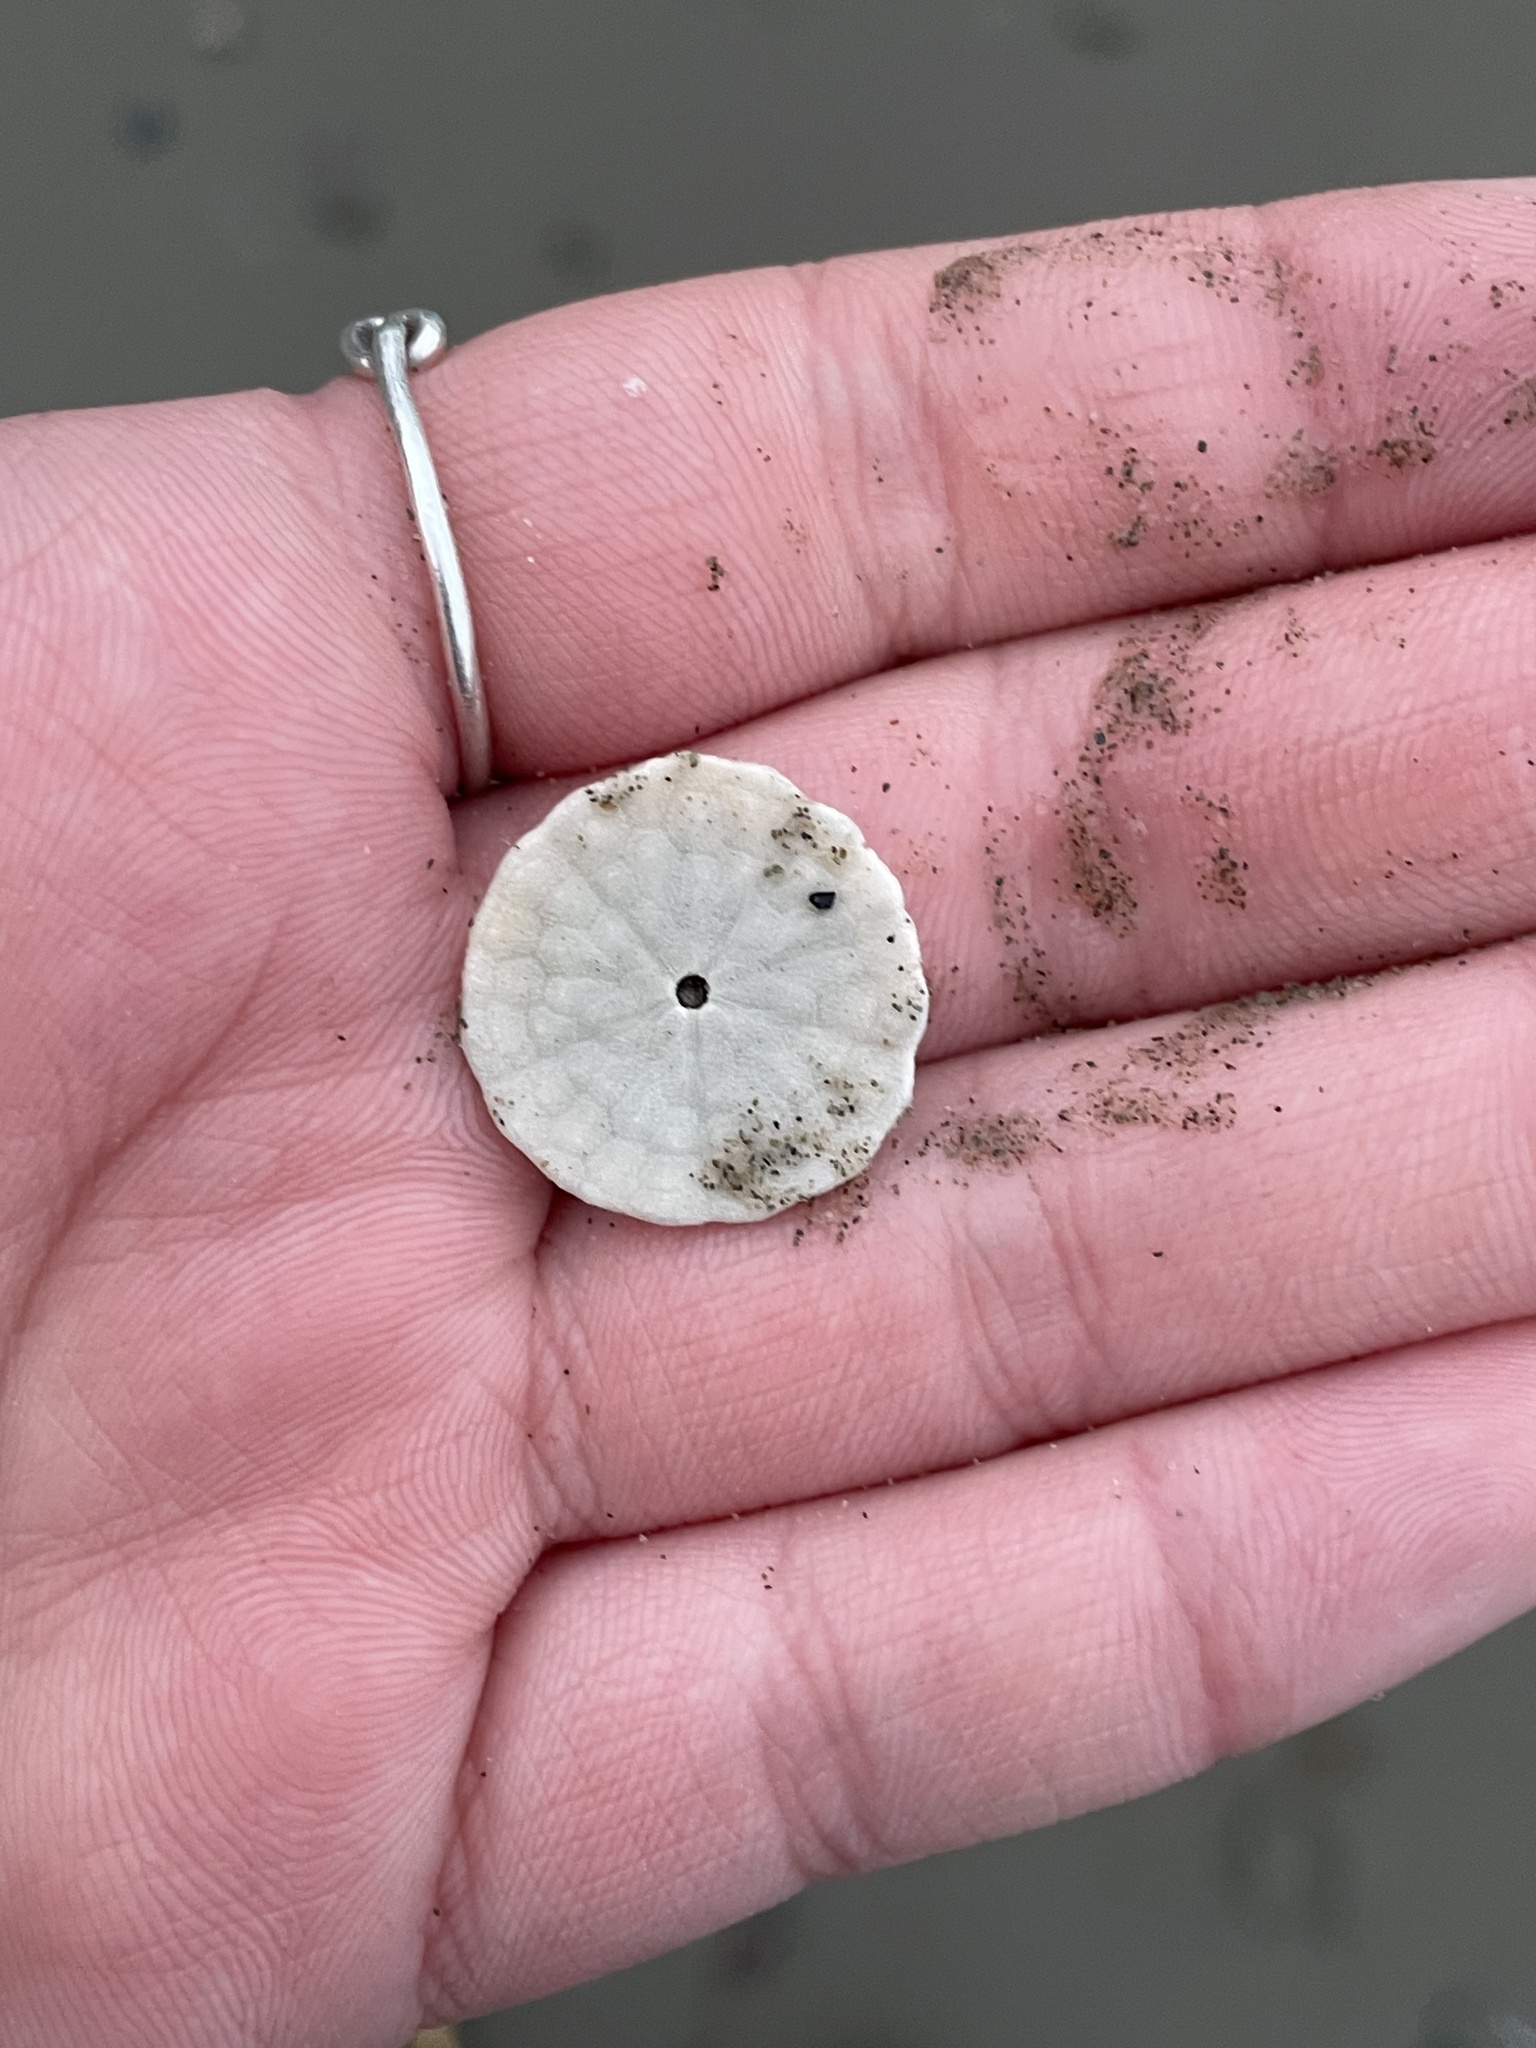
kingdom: Animalia
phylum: Echinodermata
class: Echinoidea
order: Echinolampadacea
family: Echinarachniidae
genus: Echinarachnius
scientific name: Echinarachnius parma
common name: Common sand dollar
